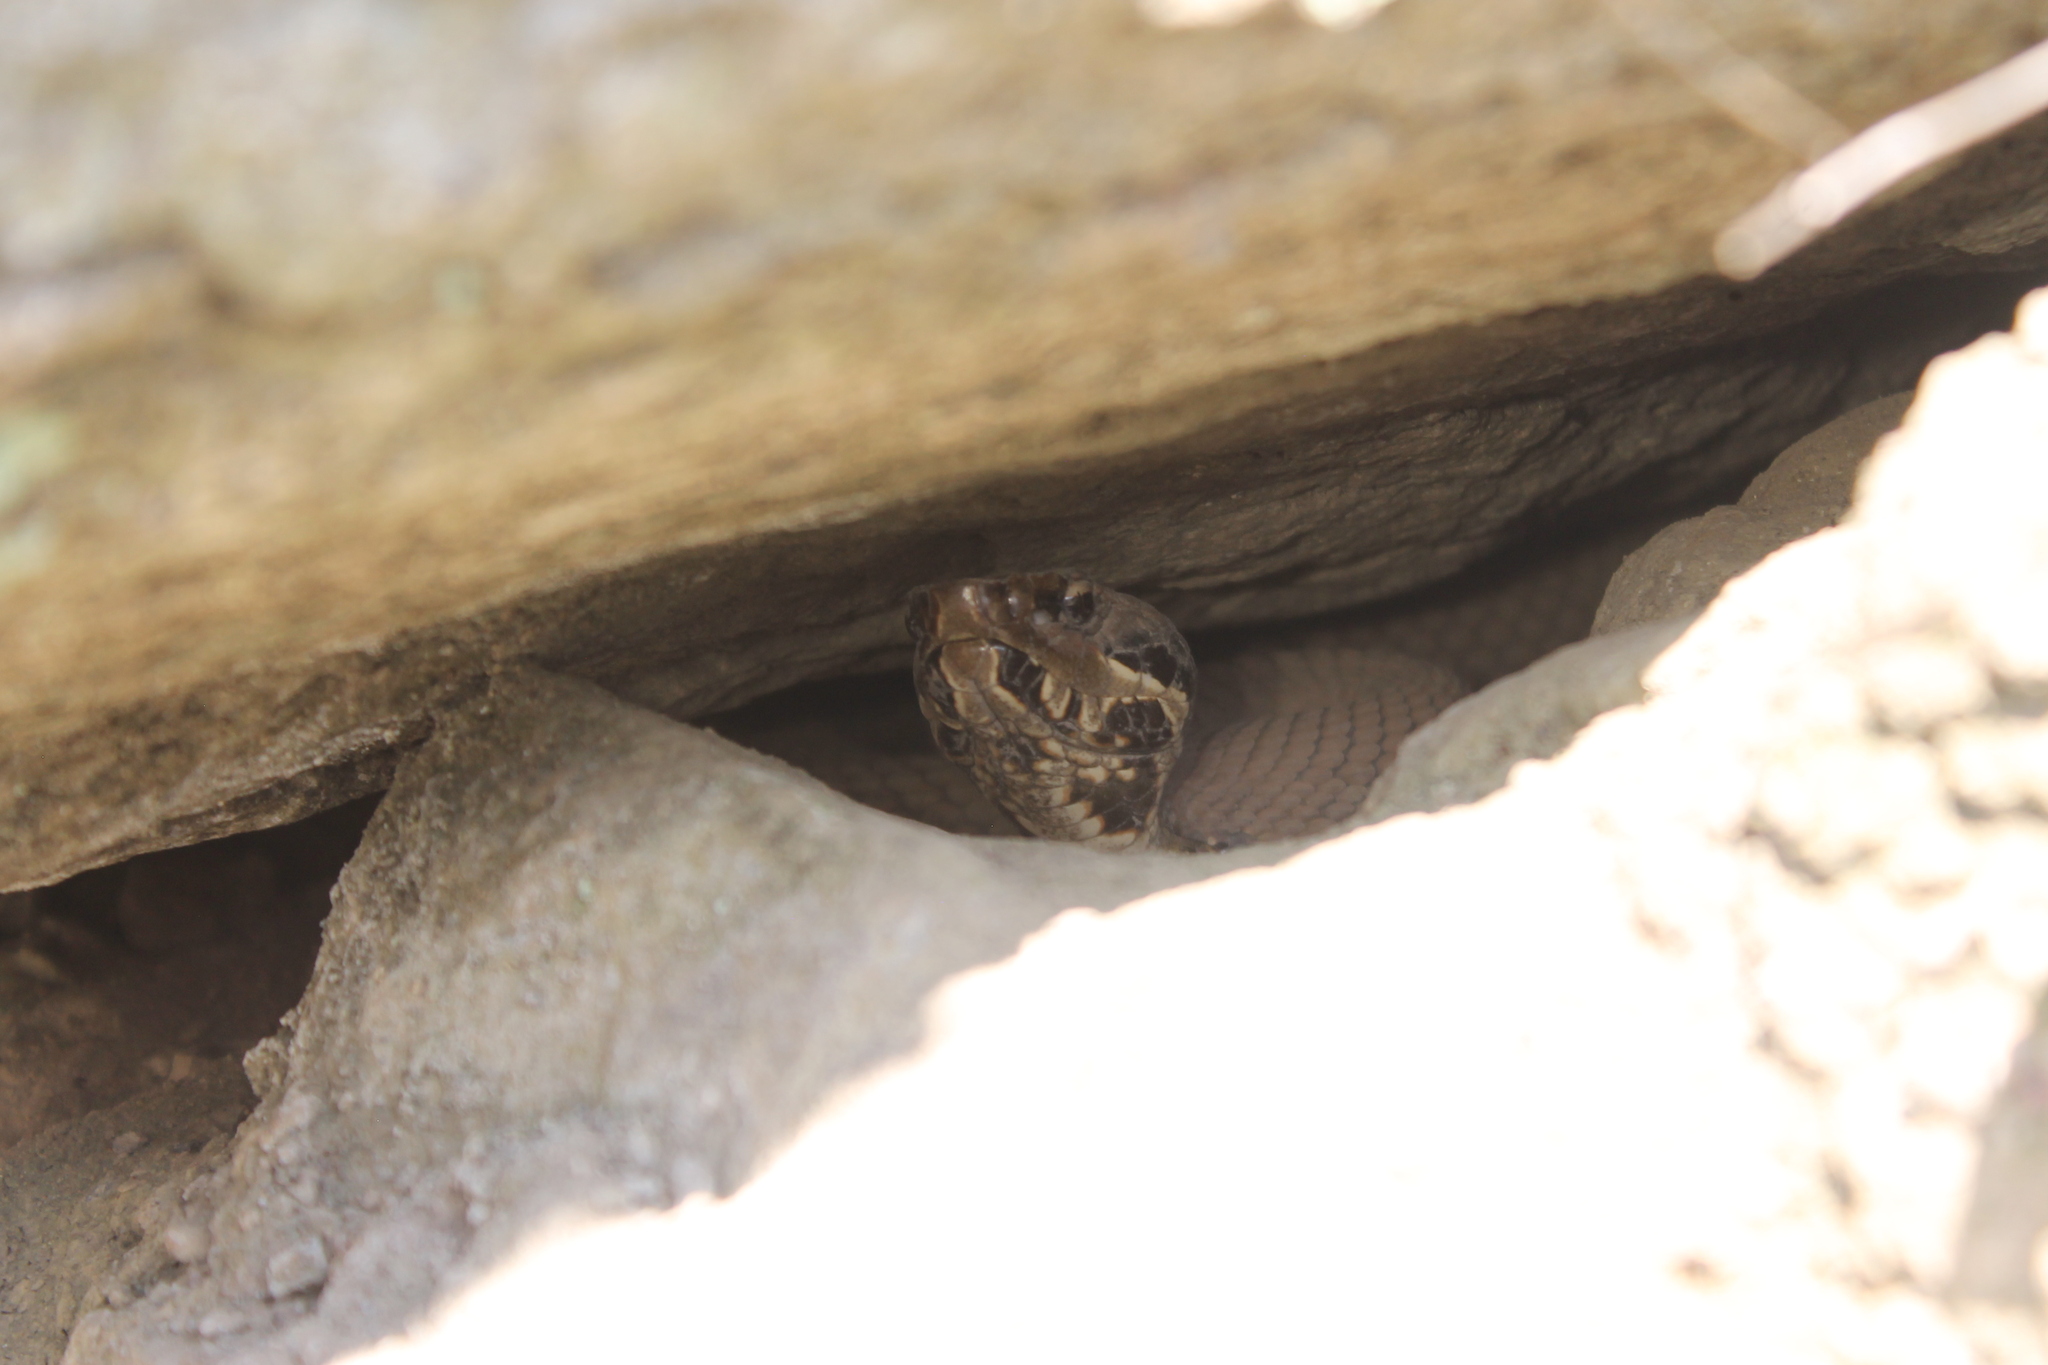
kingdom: Animalia
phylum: Chordata
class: Squamata
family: Viperidae
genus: Agkistrodon
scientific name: Agkistrodon piscivorus
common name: Cottonmouth
